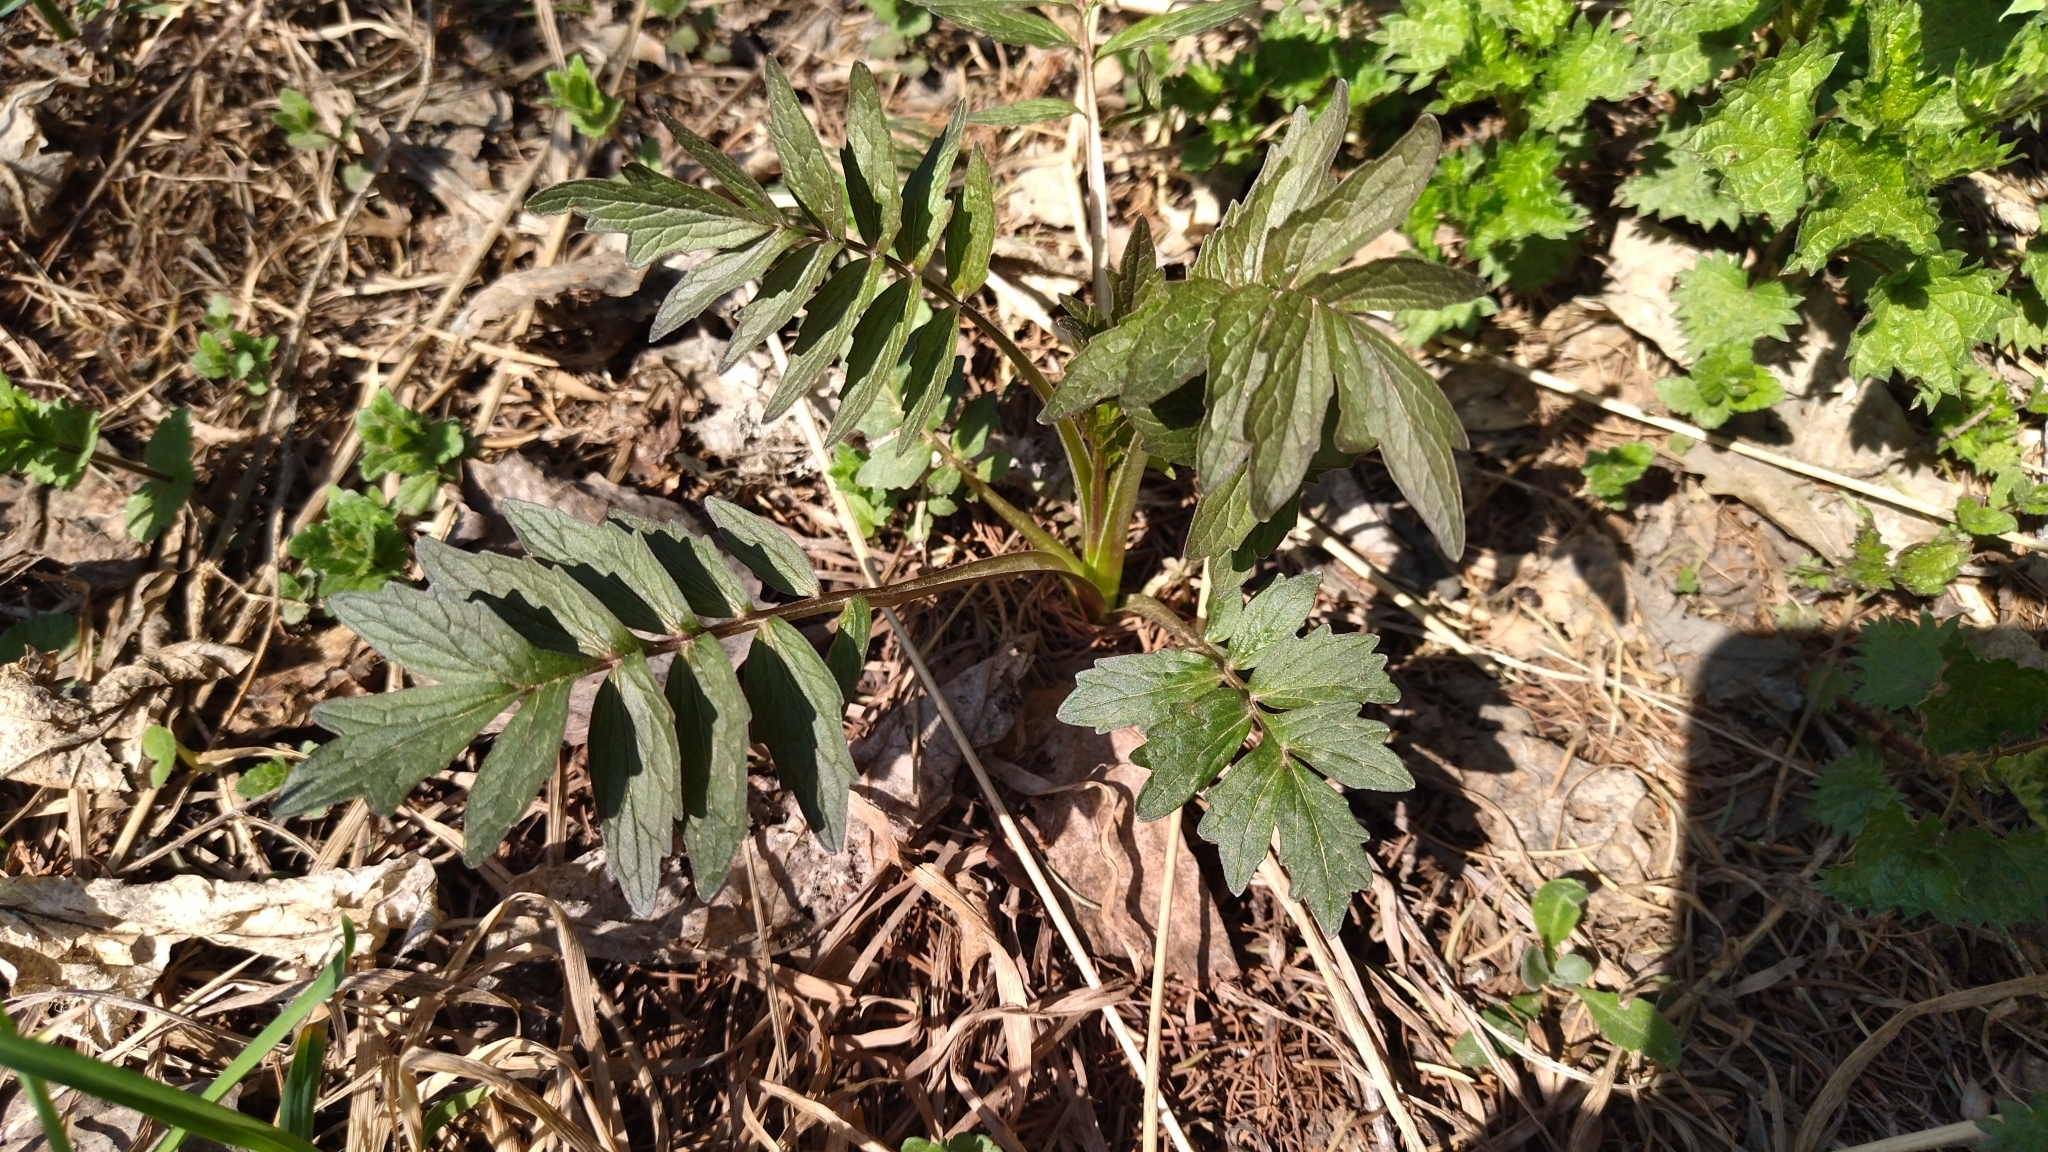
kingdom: Plantae
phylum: Tracheophyta
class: Magnoliopsida
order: Dipsacales
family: Caprifoliaceae
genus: Valeriana
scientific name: Valeriana wolgensis
